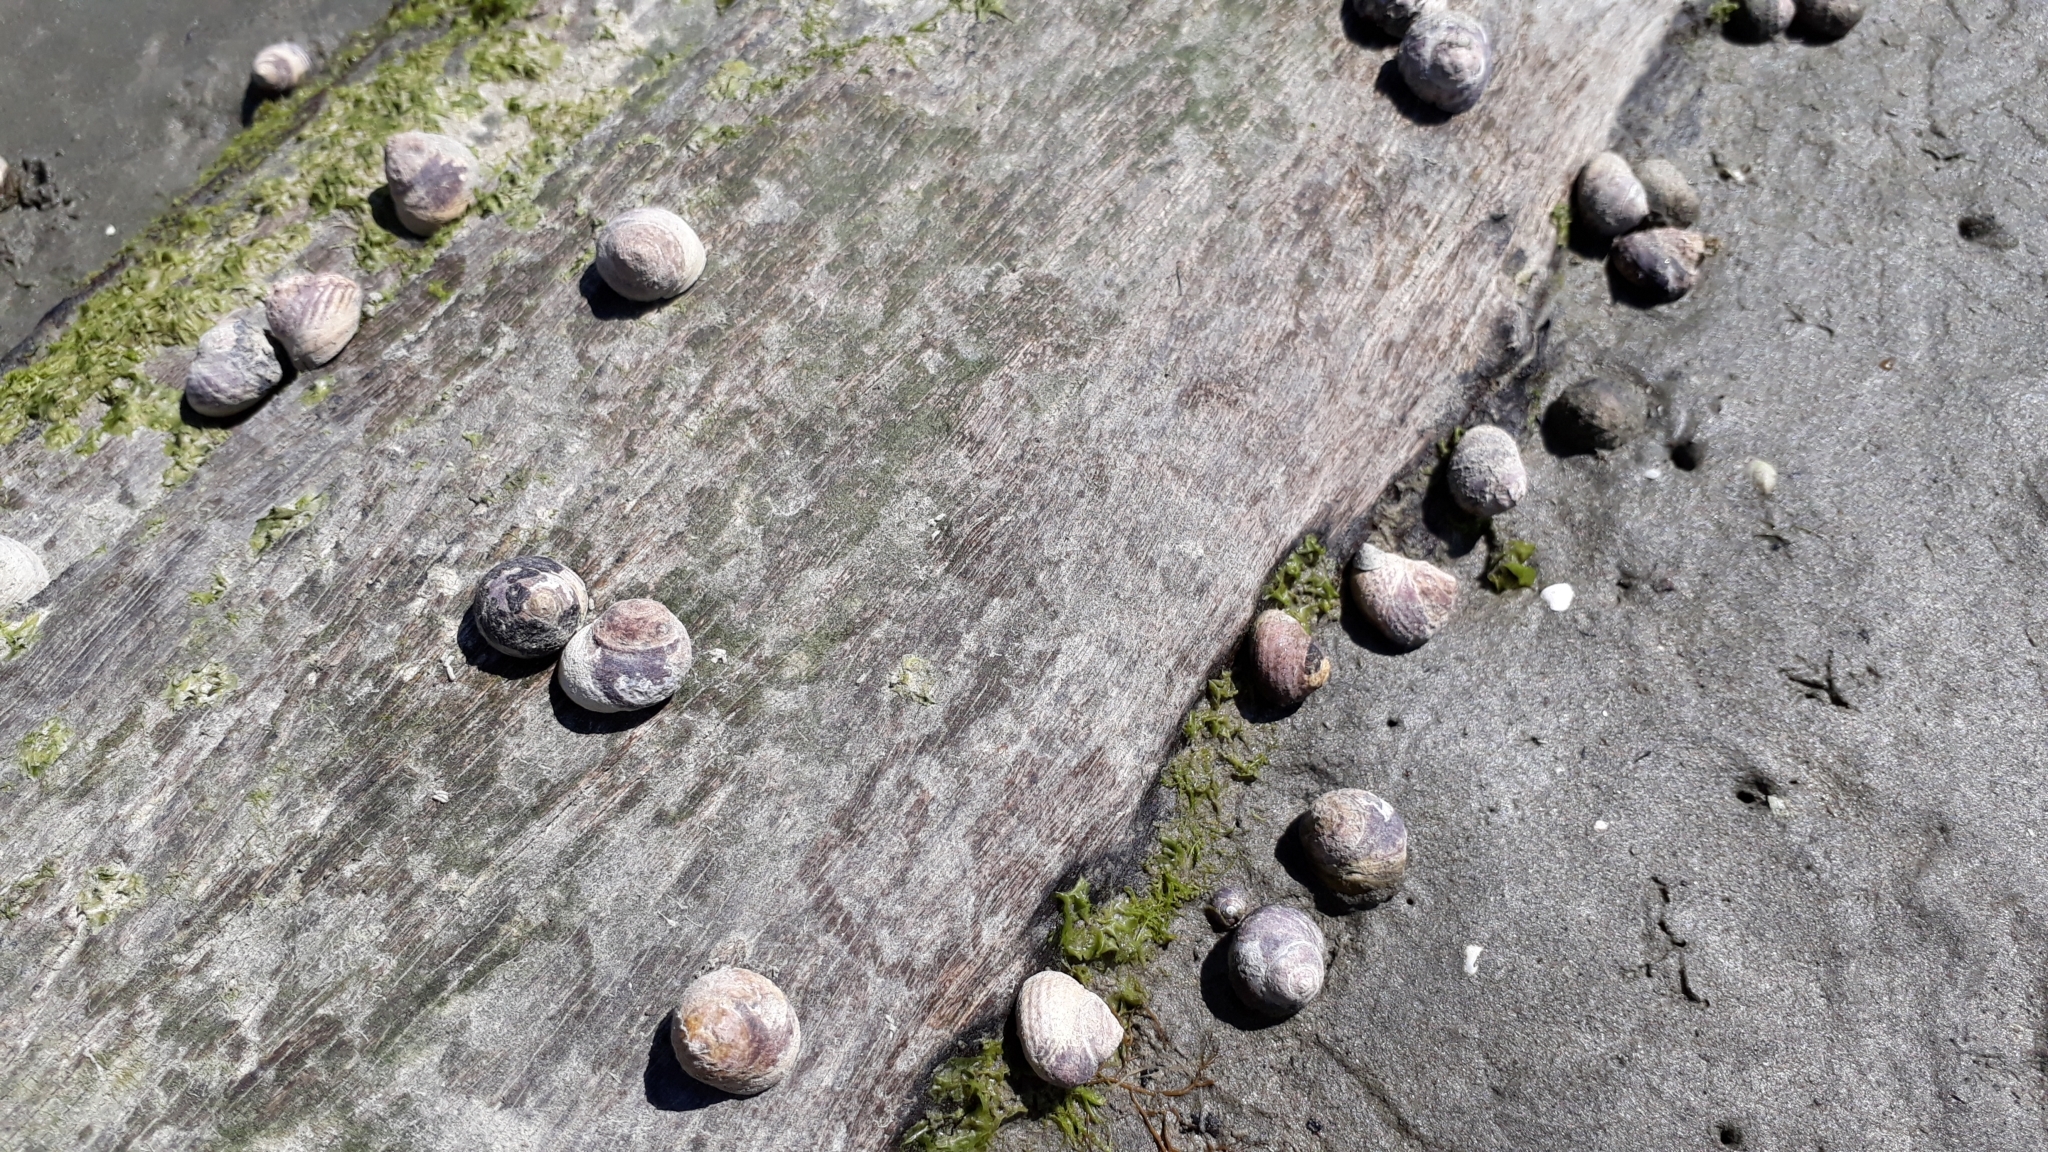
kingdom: Animalia
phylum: Mollusca
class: Gastropoda
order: Trochida
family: Trochidae
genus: Diloma
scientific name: Diloma subrostratum
